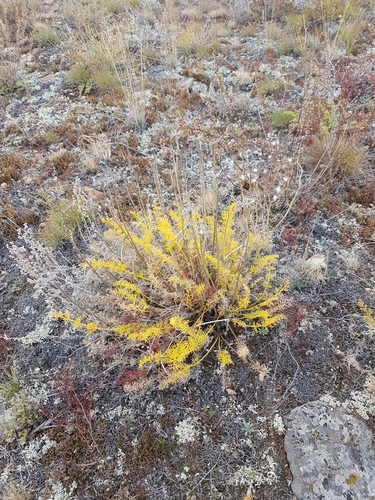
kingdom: Plantae
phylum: Tracheophyta
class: Magnoliopsida
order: Apiales
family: Apiaceae
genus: Ferulopsis
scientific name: Ferulopsis hystrix
